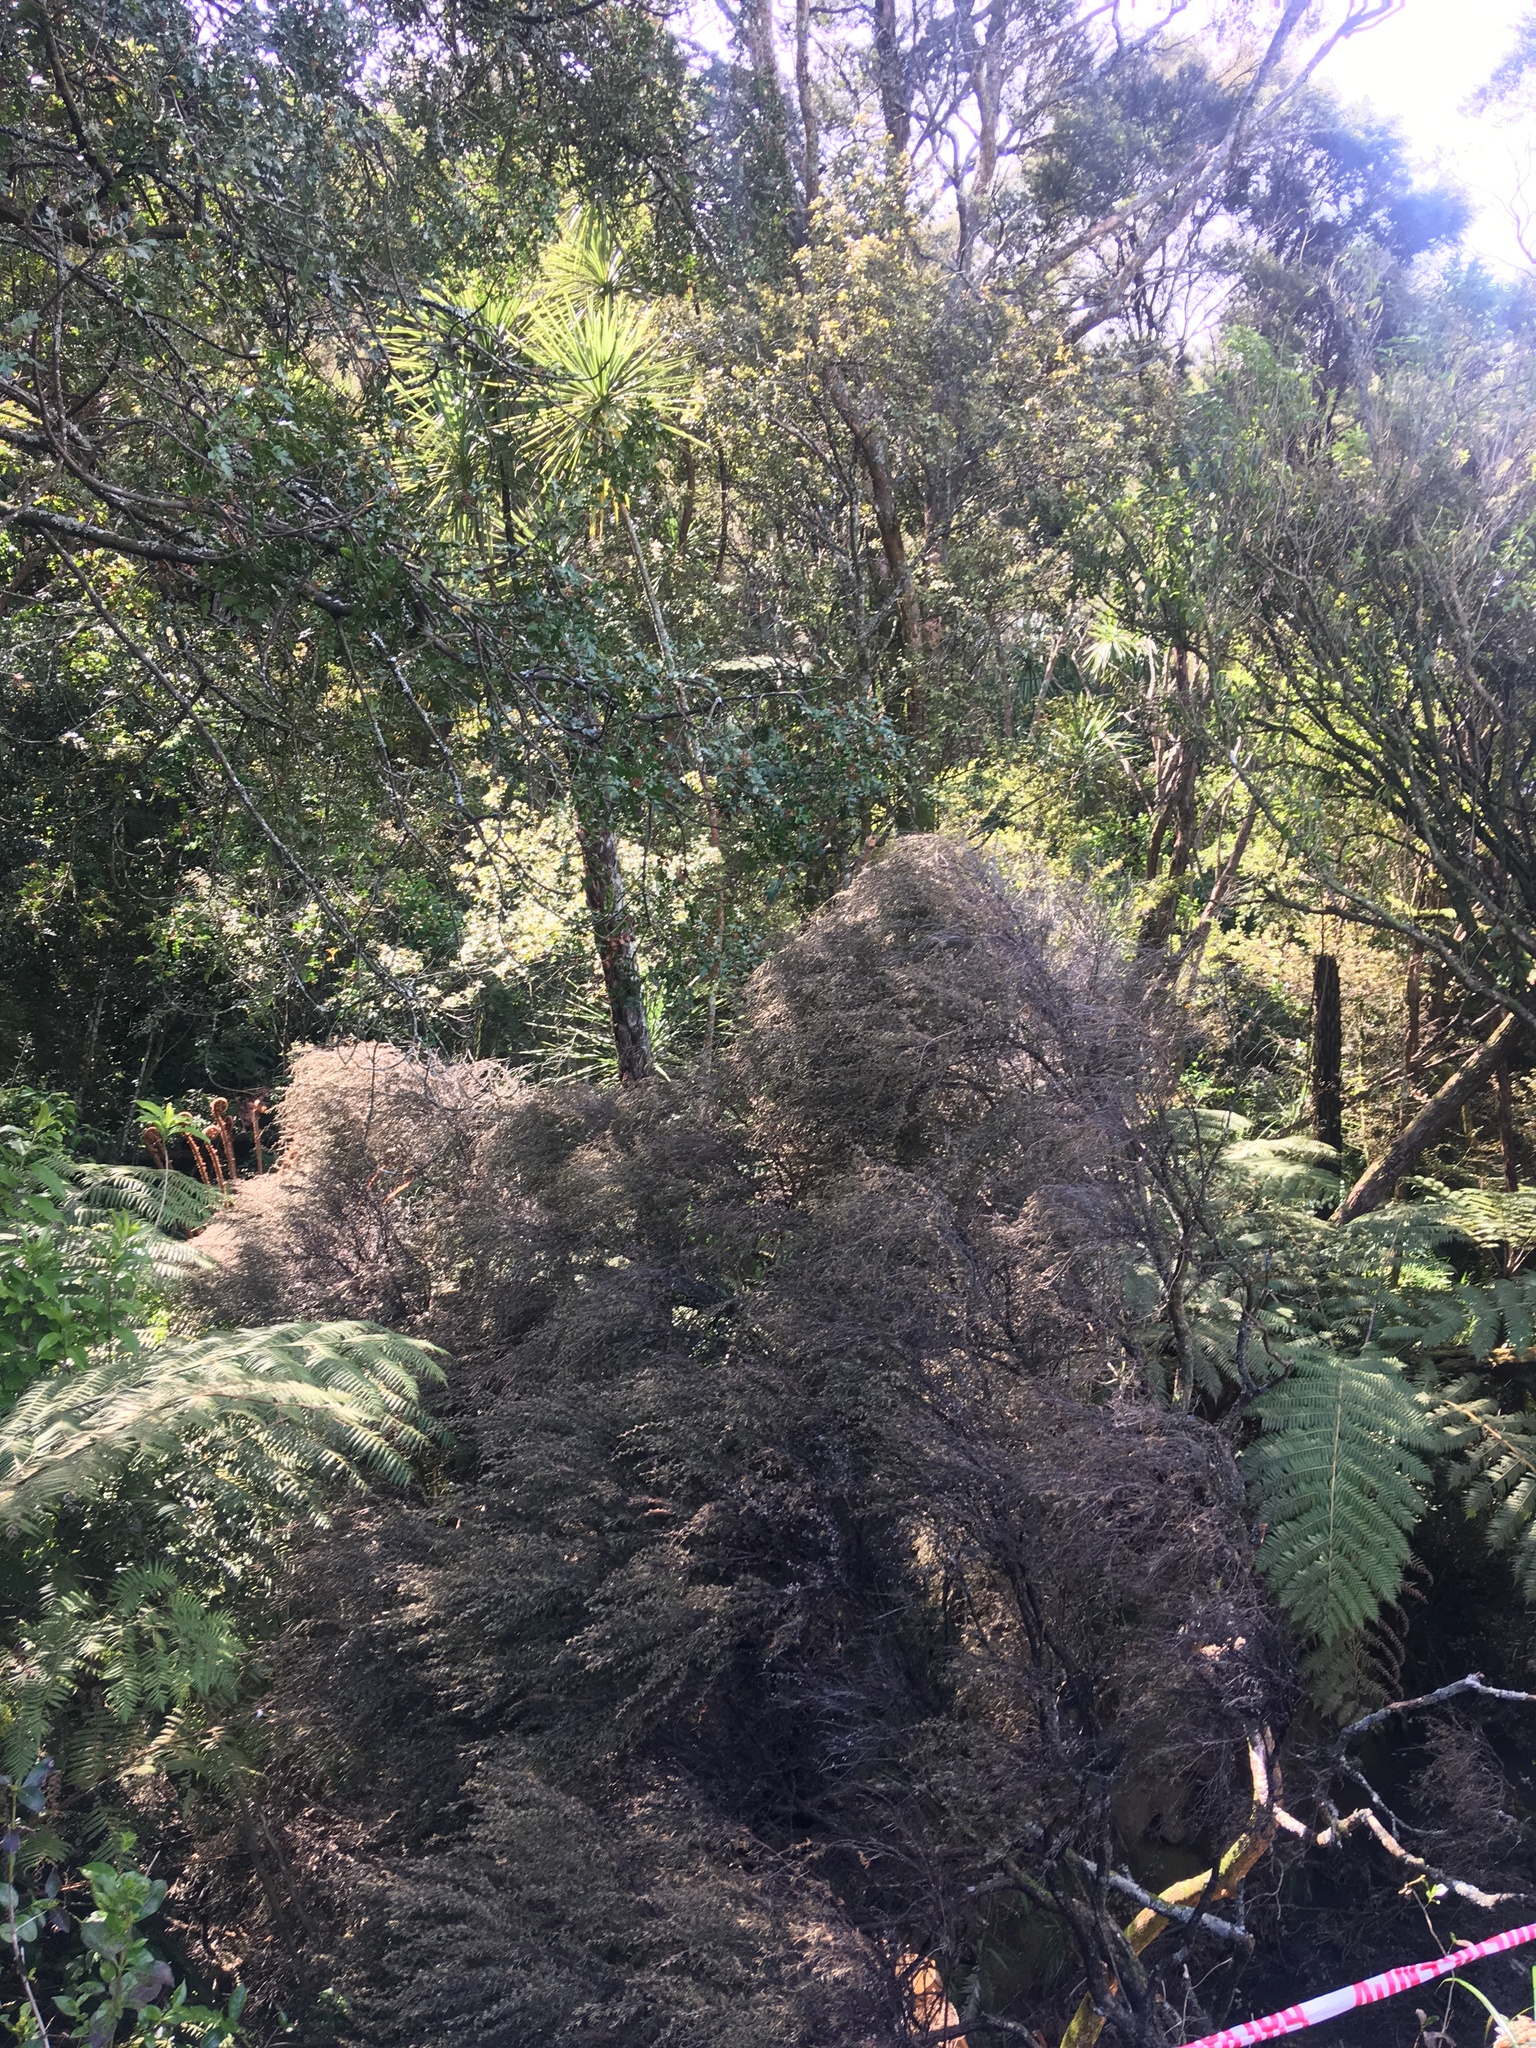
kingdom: Plantae
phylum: Tracheophyta
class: Pinopsida
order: Pinales
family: Phyllocladaceae
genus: Phyllocladus
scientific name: Phyllocladus trichomanoides
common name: Celery pine
